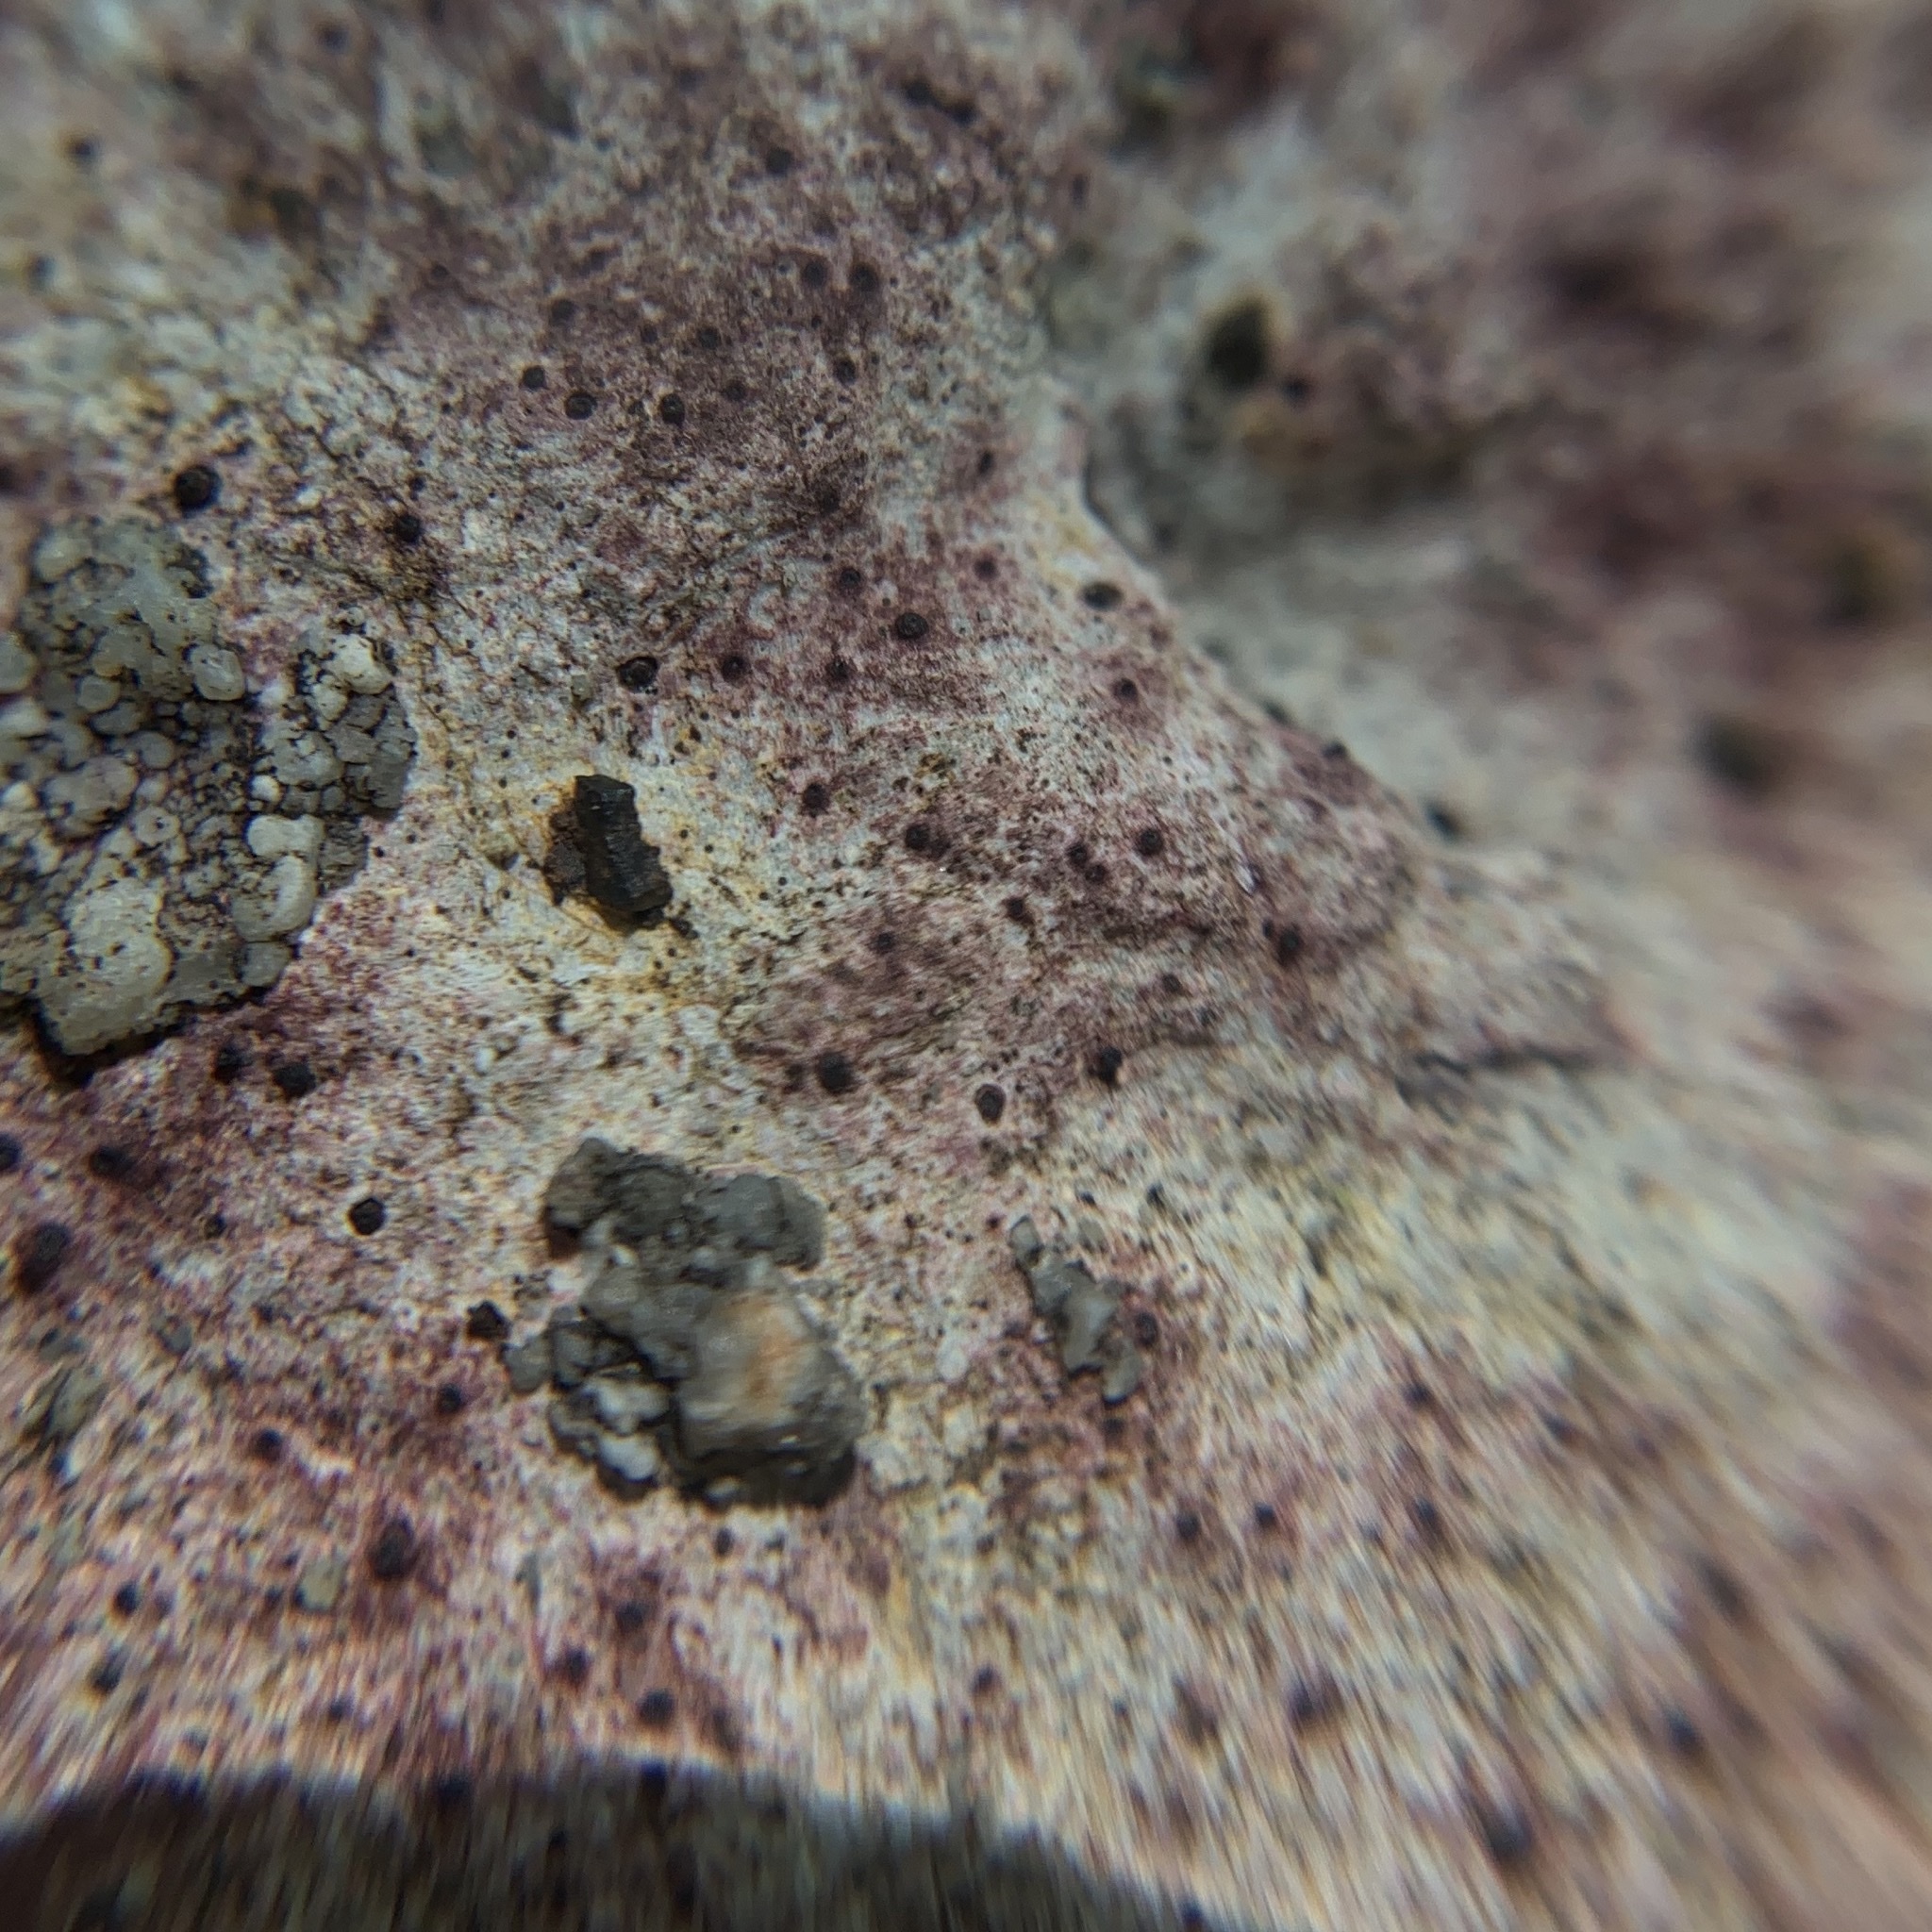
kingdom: Fungi
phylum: Ascomycota
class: Eurotiomycetes
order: Verrucariales
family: Verrucariaceae
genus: Bagliettoa
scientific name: Bagliettoa marmorea
